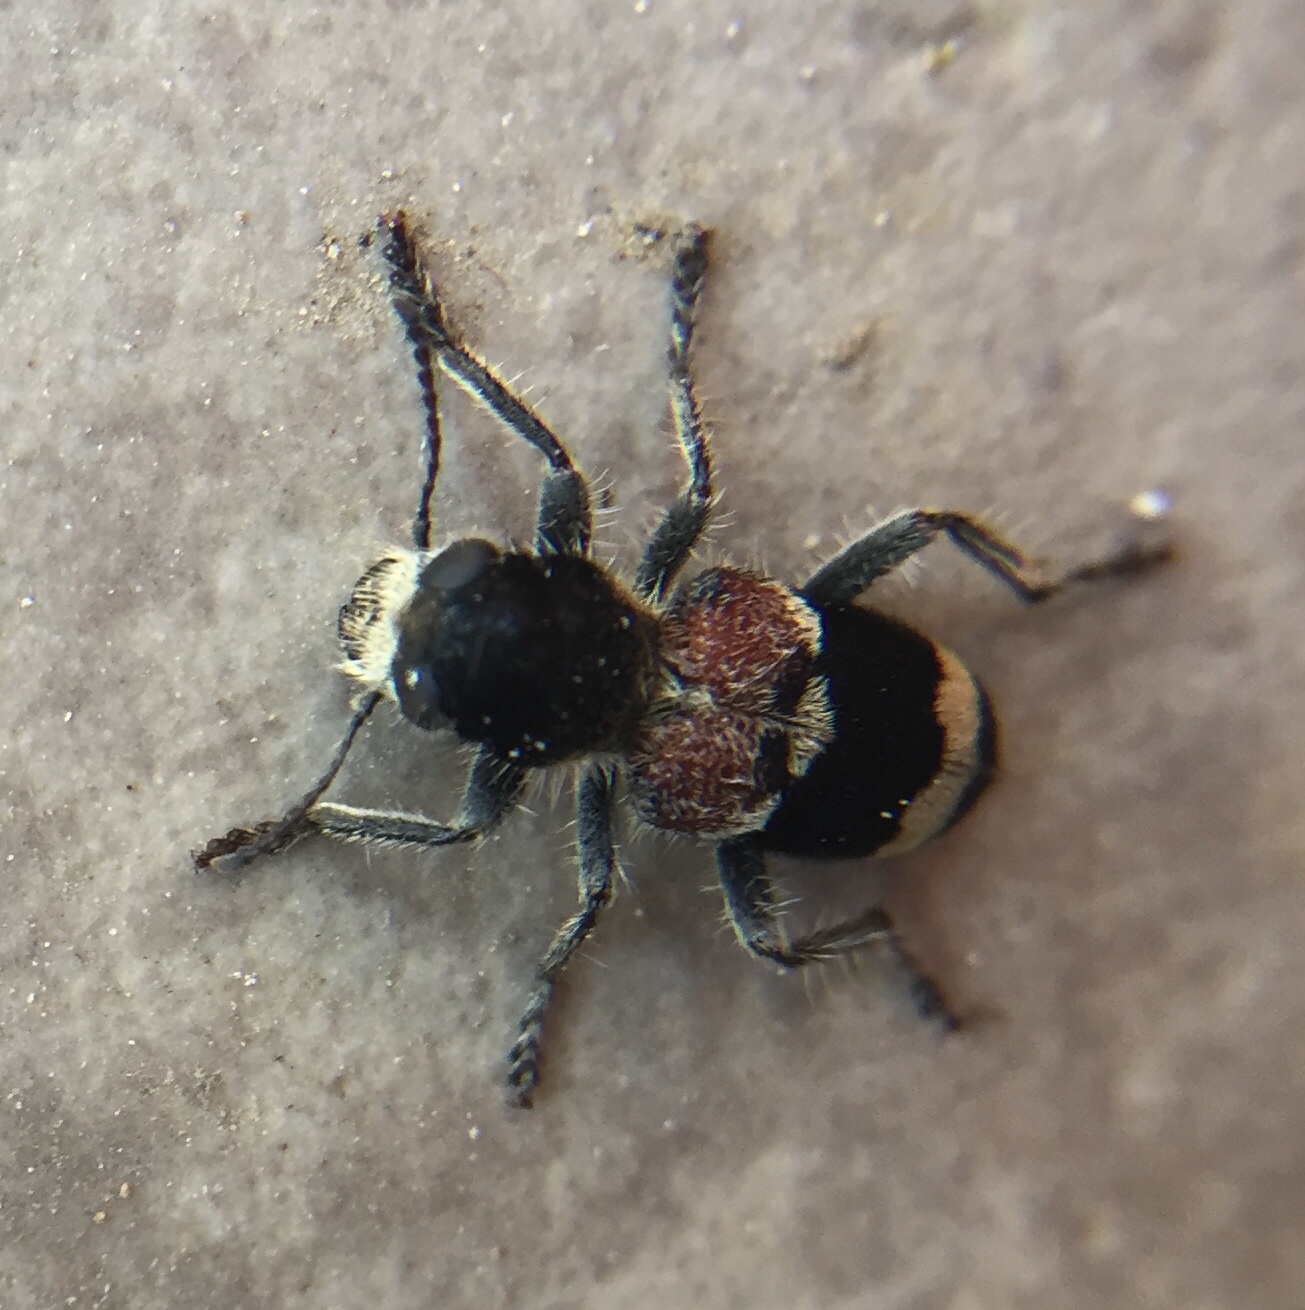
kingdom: Animalia
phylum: Arthropoda
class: Insecta
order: Coleoptera
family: Cleridae
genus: Clerus
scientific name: Clerus mutillarius
